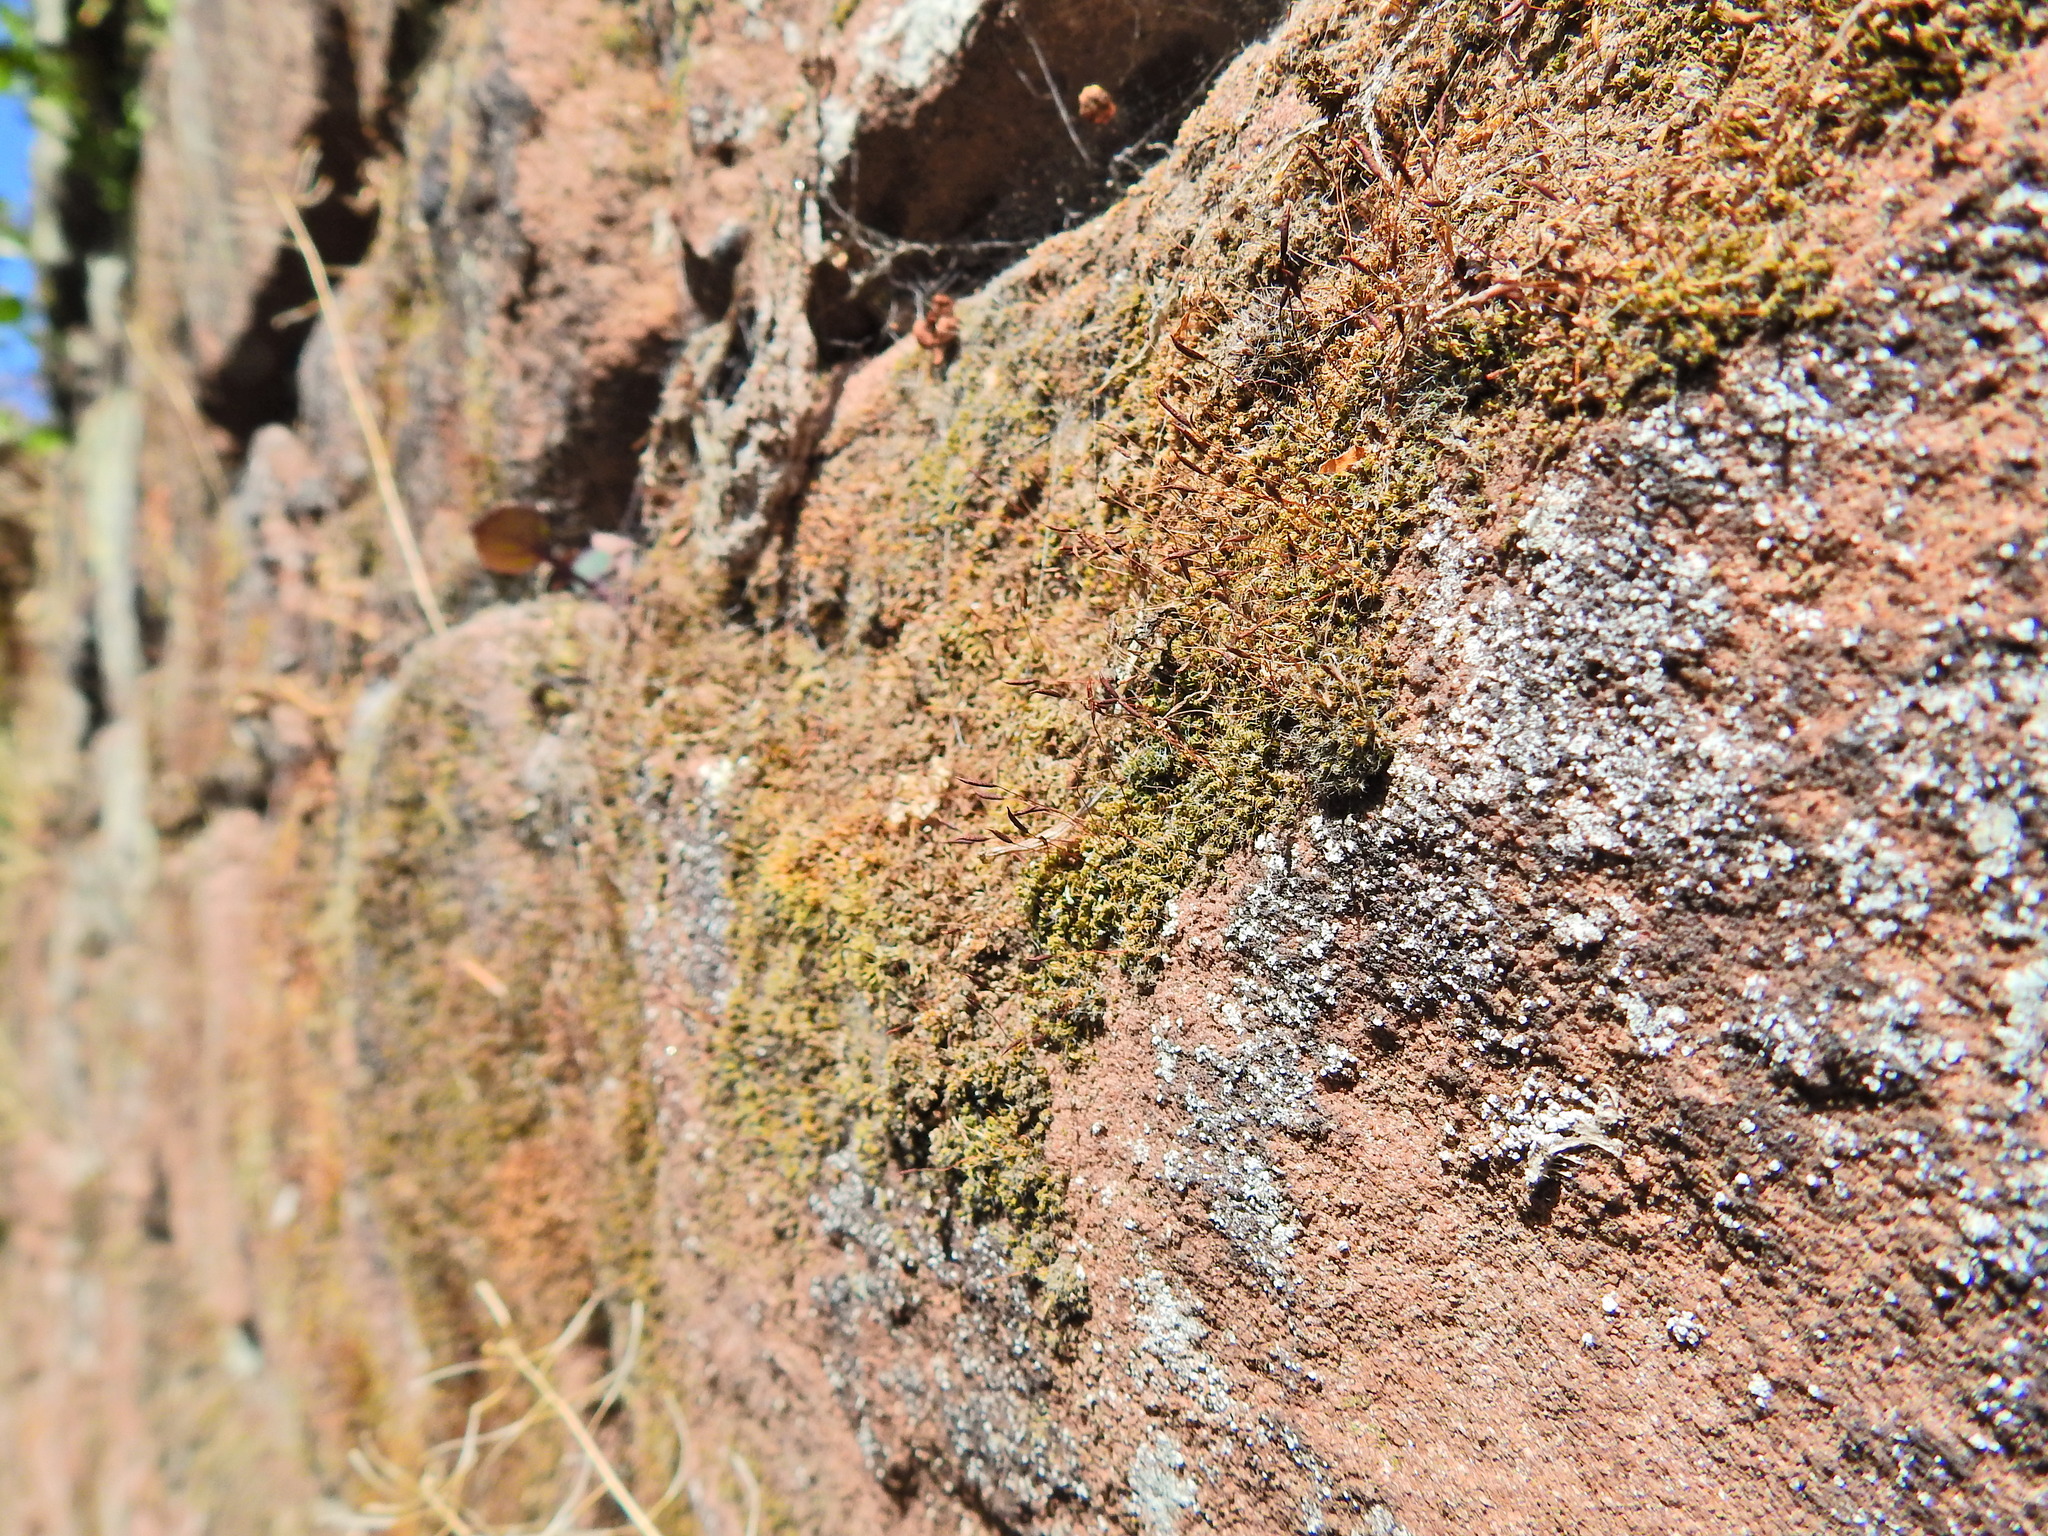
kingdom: Plantae
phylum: Bryophyta
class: Bryopsida
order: Pottiales
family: Pottiaceae
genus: Tortula
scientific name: Tortula muralis
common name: Wall screw-moss
